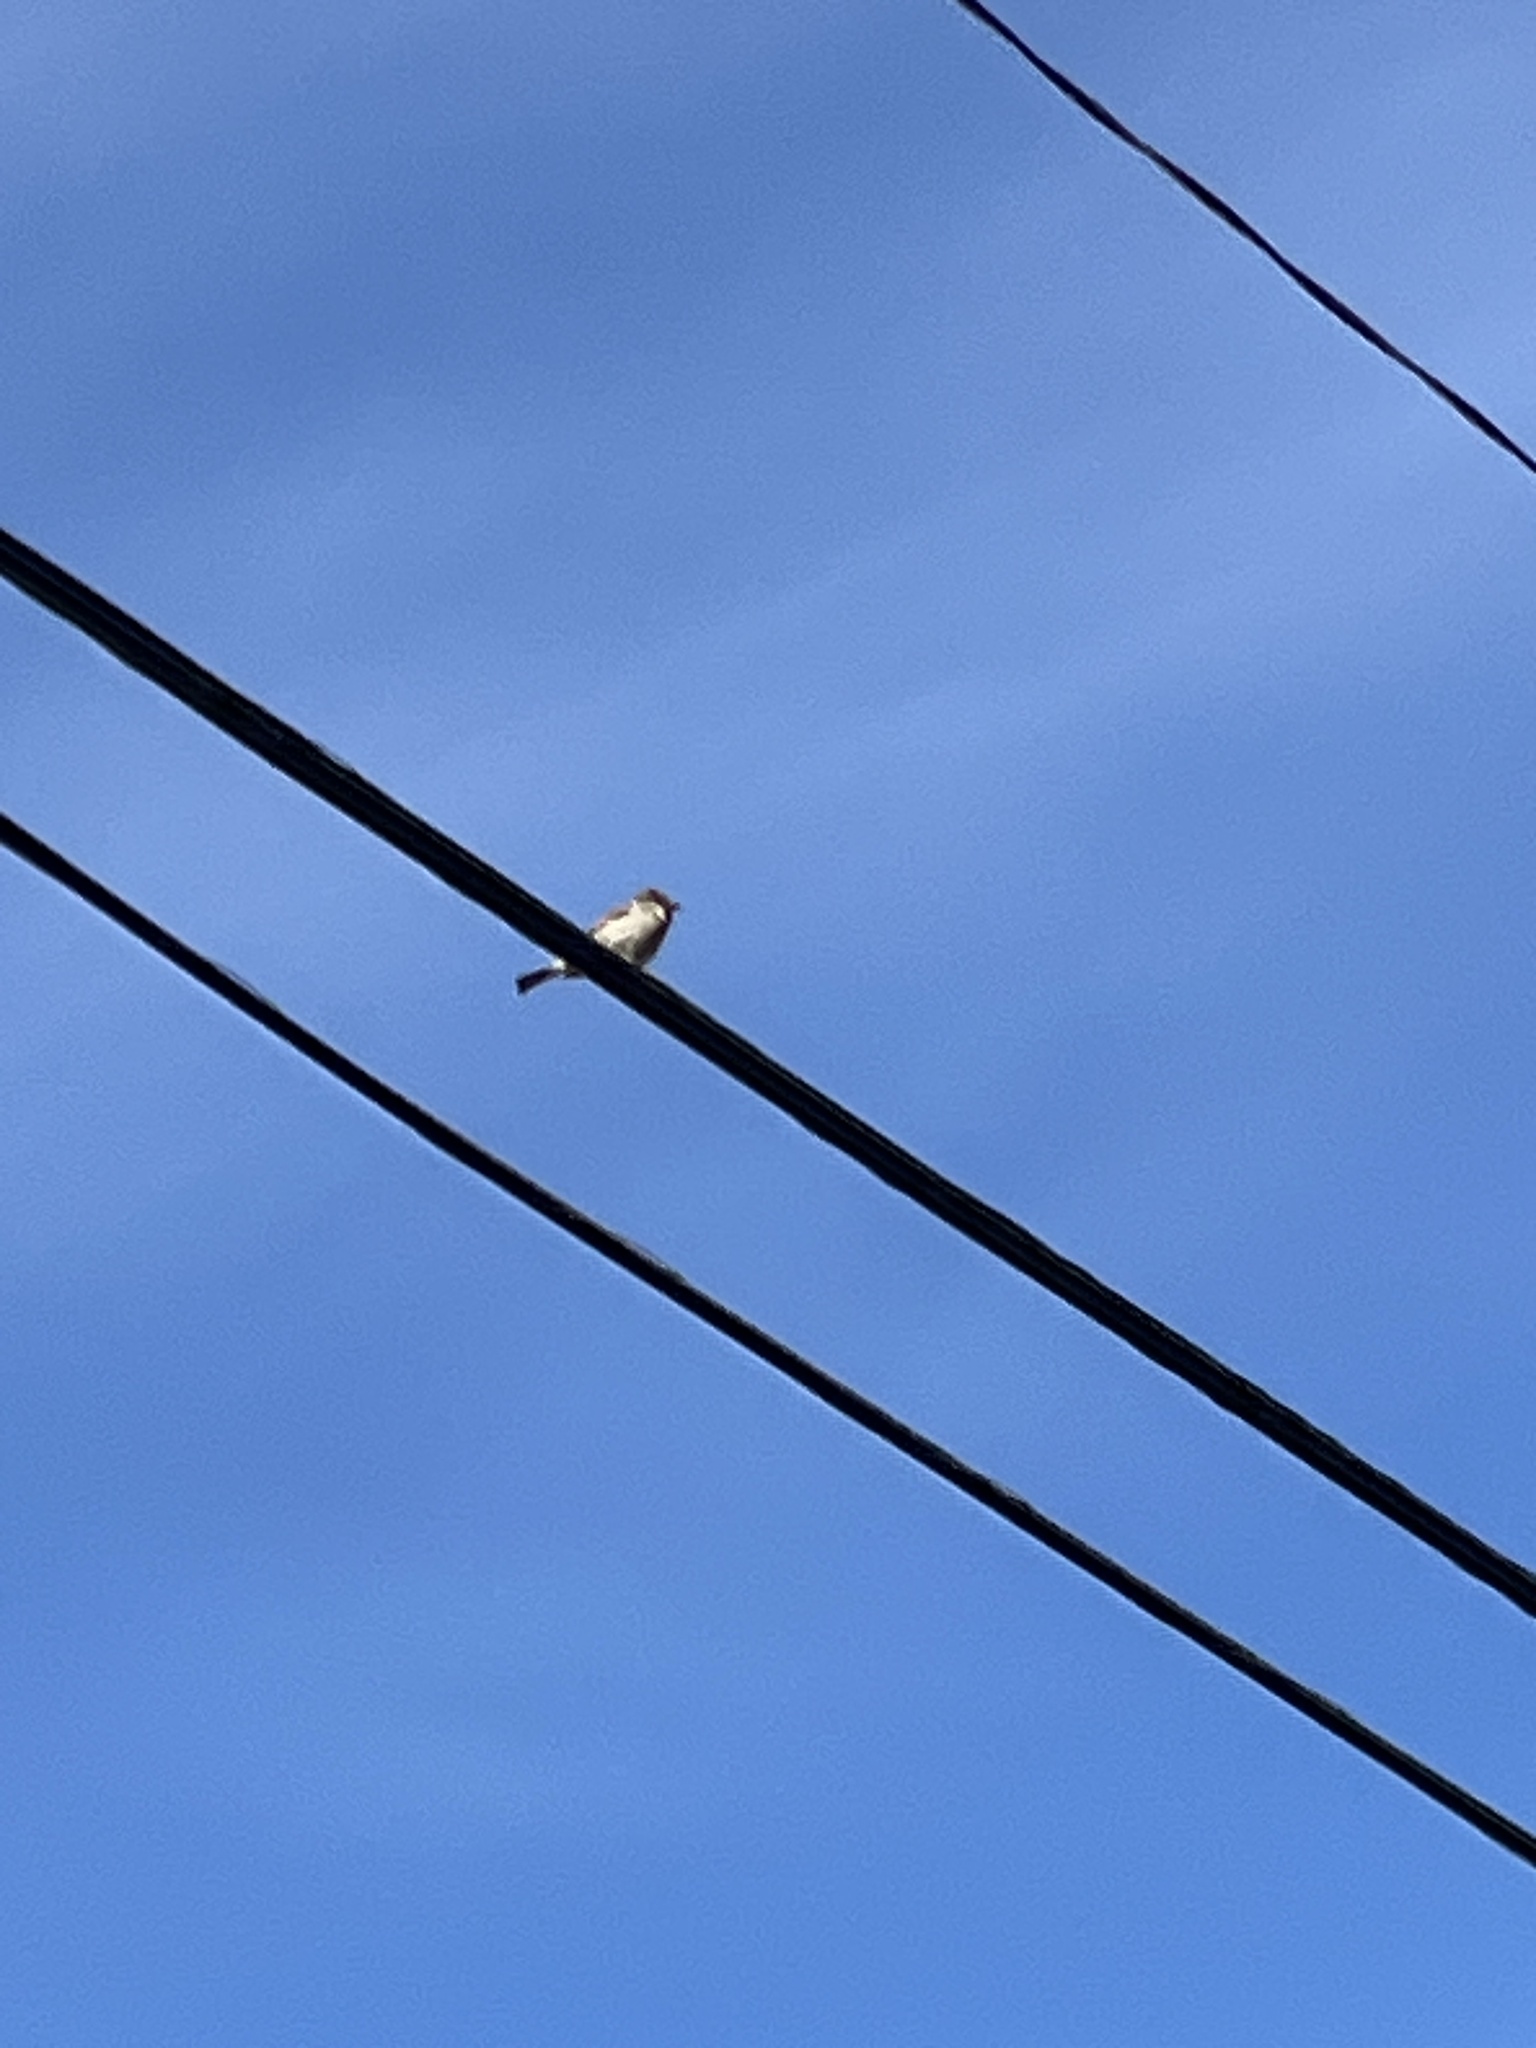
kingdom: Animalia
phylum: Chordata
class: Aves
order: Passeriformes
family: Passeridae
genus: Passer
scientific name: Passer domesticus
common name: House sparrow
